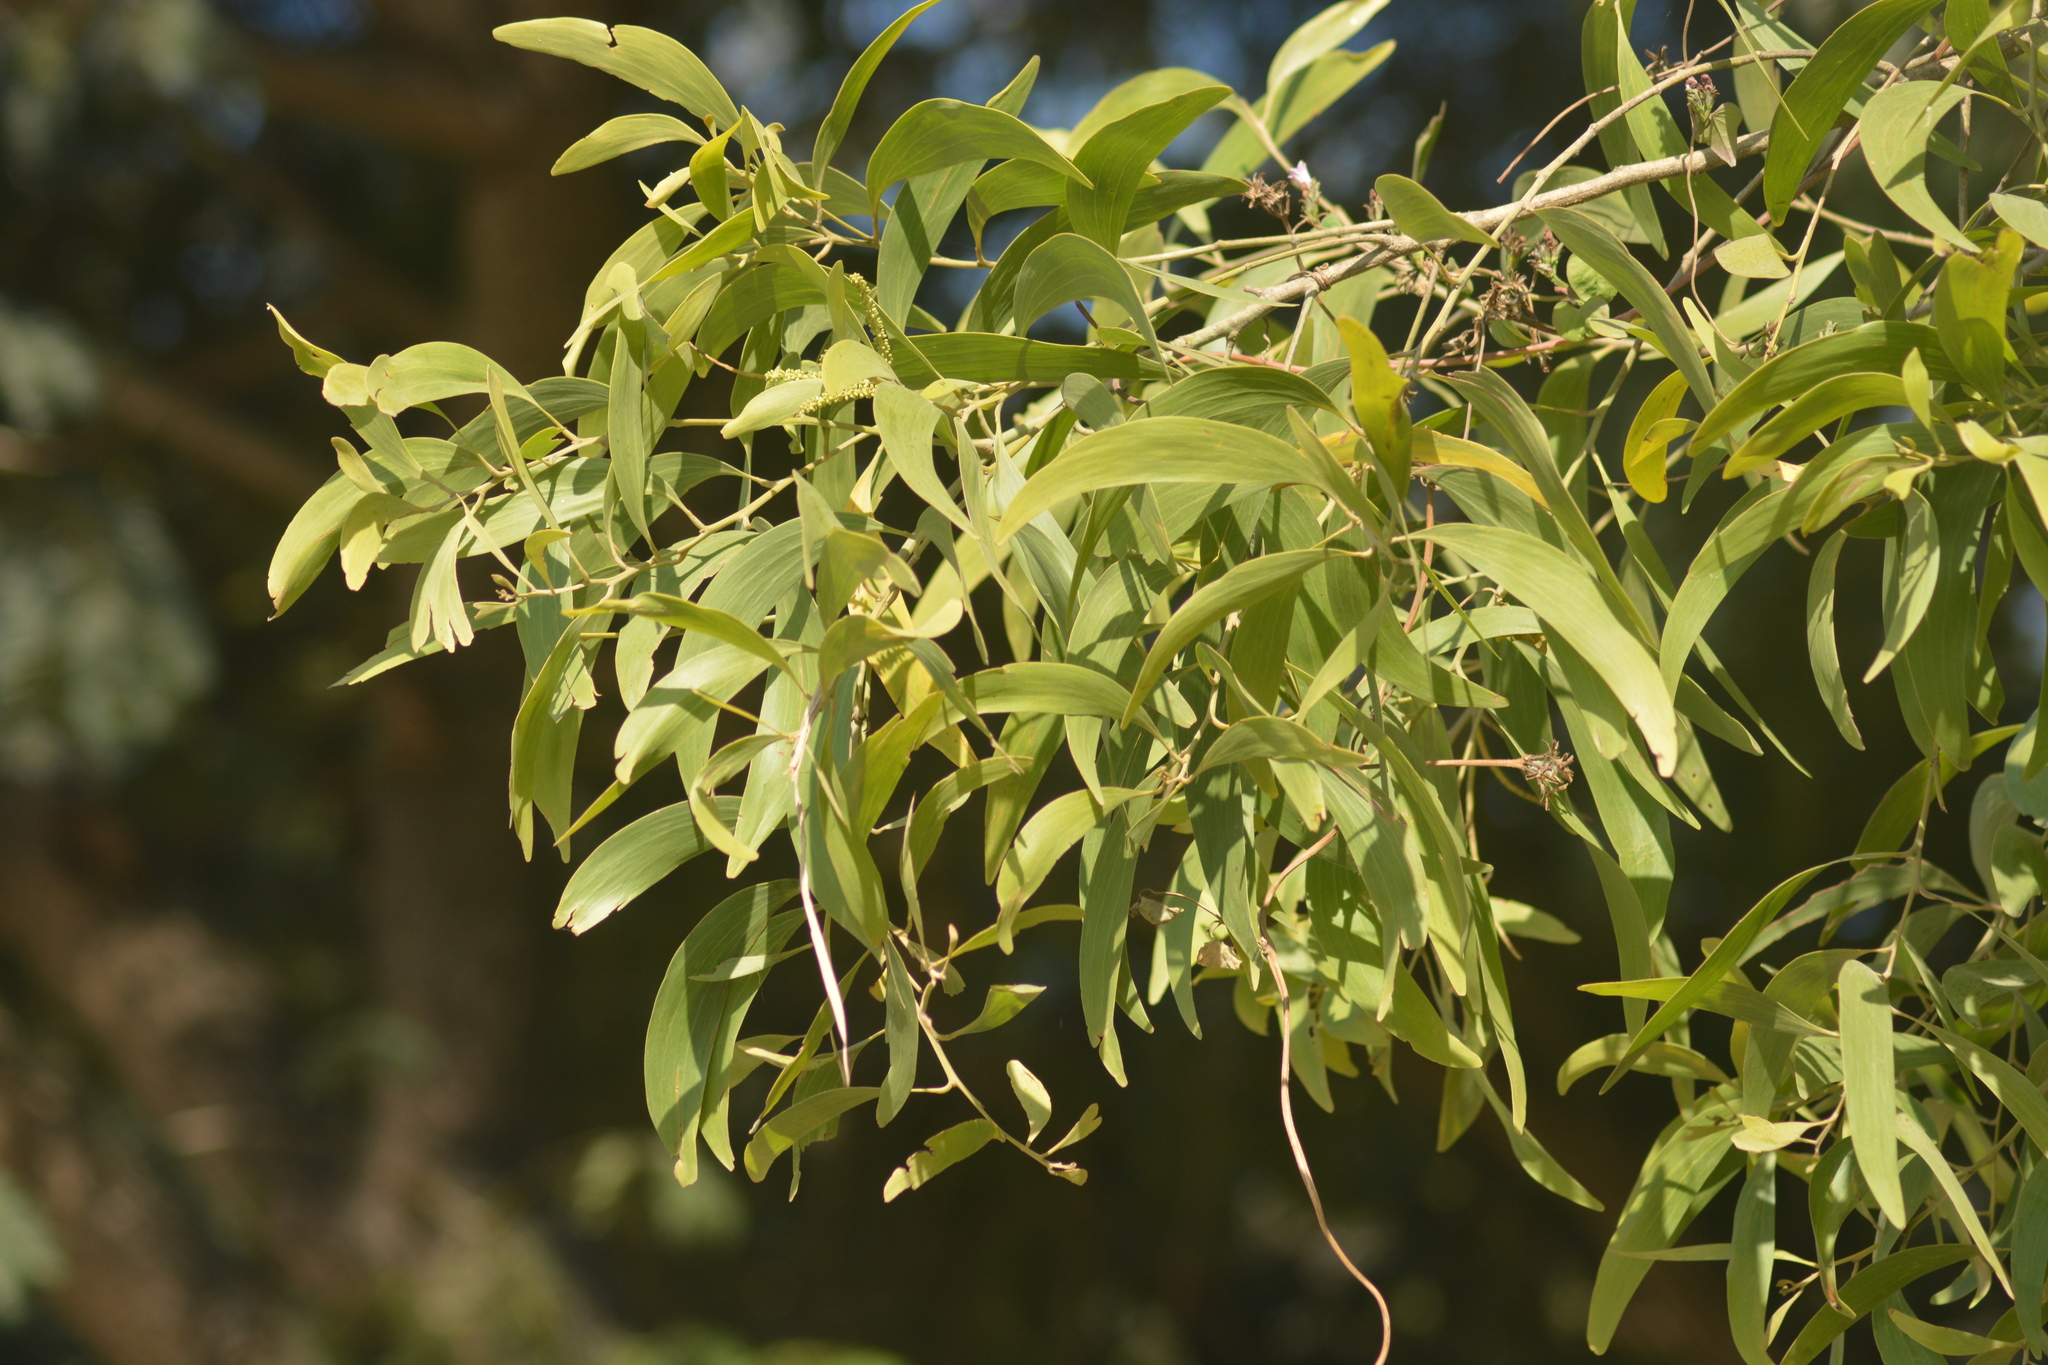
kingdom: Plantae
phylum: Tracheophyta
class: Magnoliopsida
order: Fabales
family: Fabaceae
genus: Acacia
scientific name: Acacia auriculiformis
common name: Earleaf acacia
